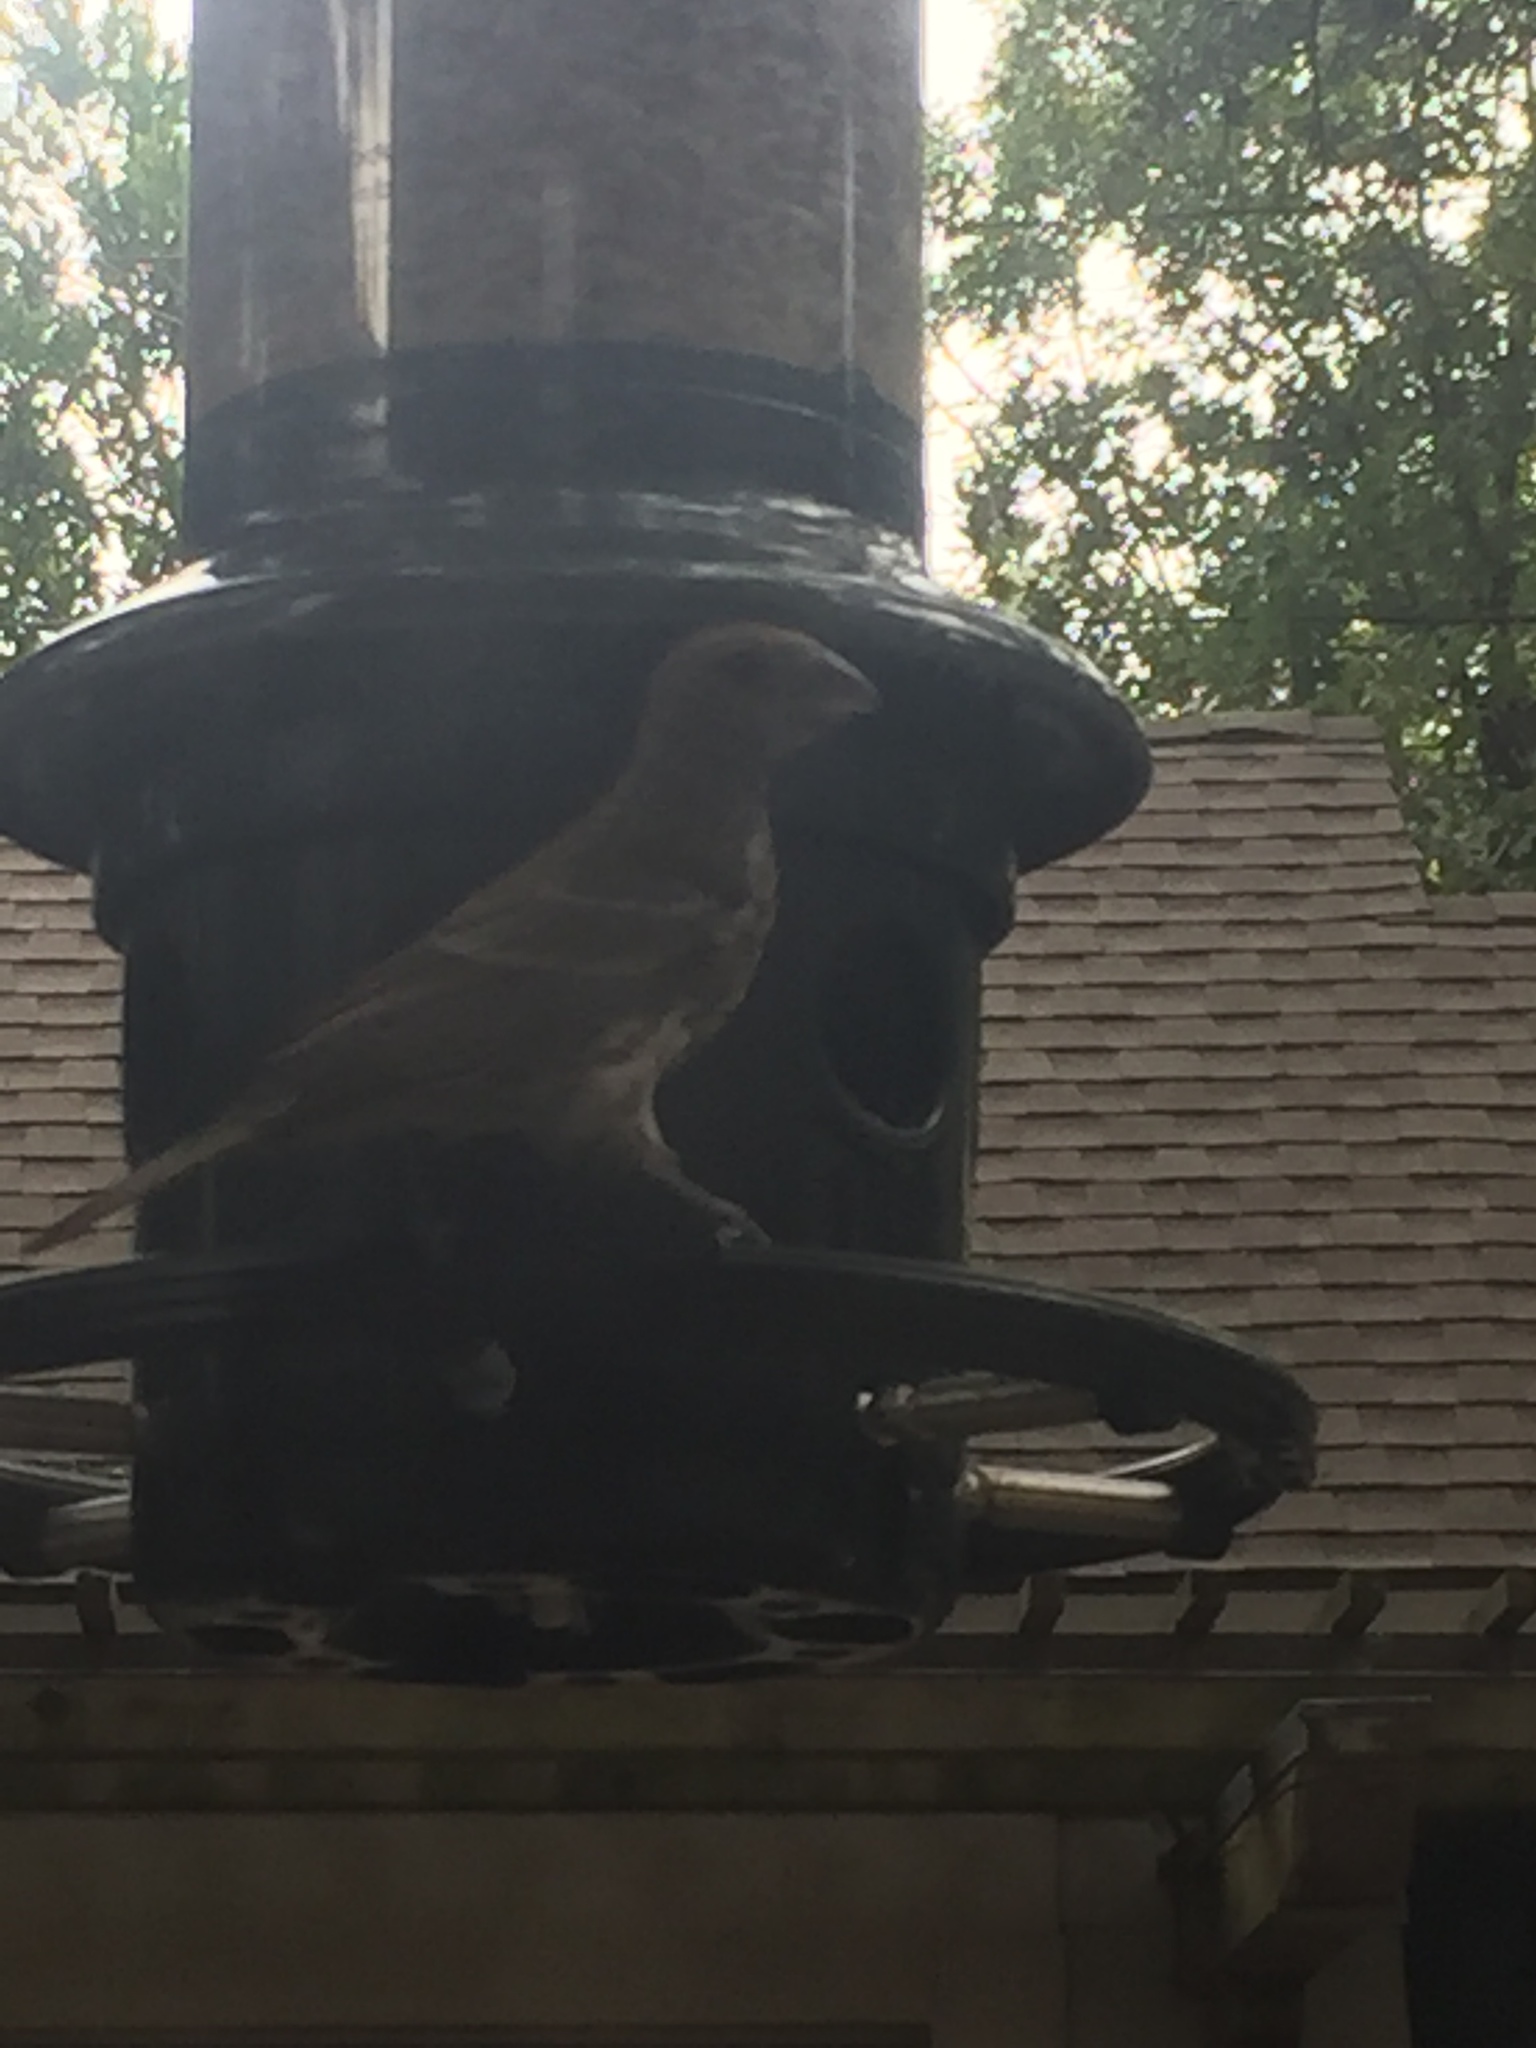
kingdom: Animalia
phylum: Chordata
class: Aves
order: Passeriformes
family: Fringillidae
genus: Haemorhous
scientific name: Haemorhous mexicanus
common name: House finch
